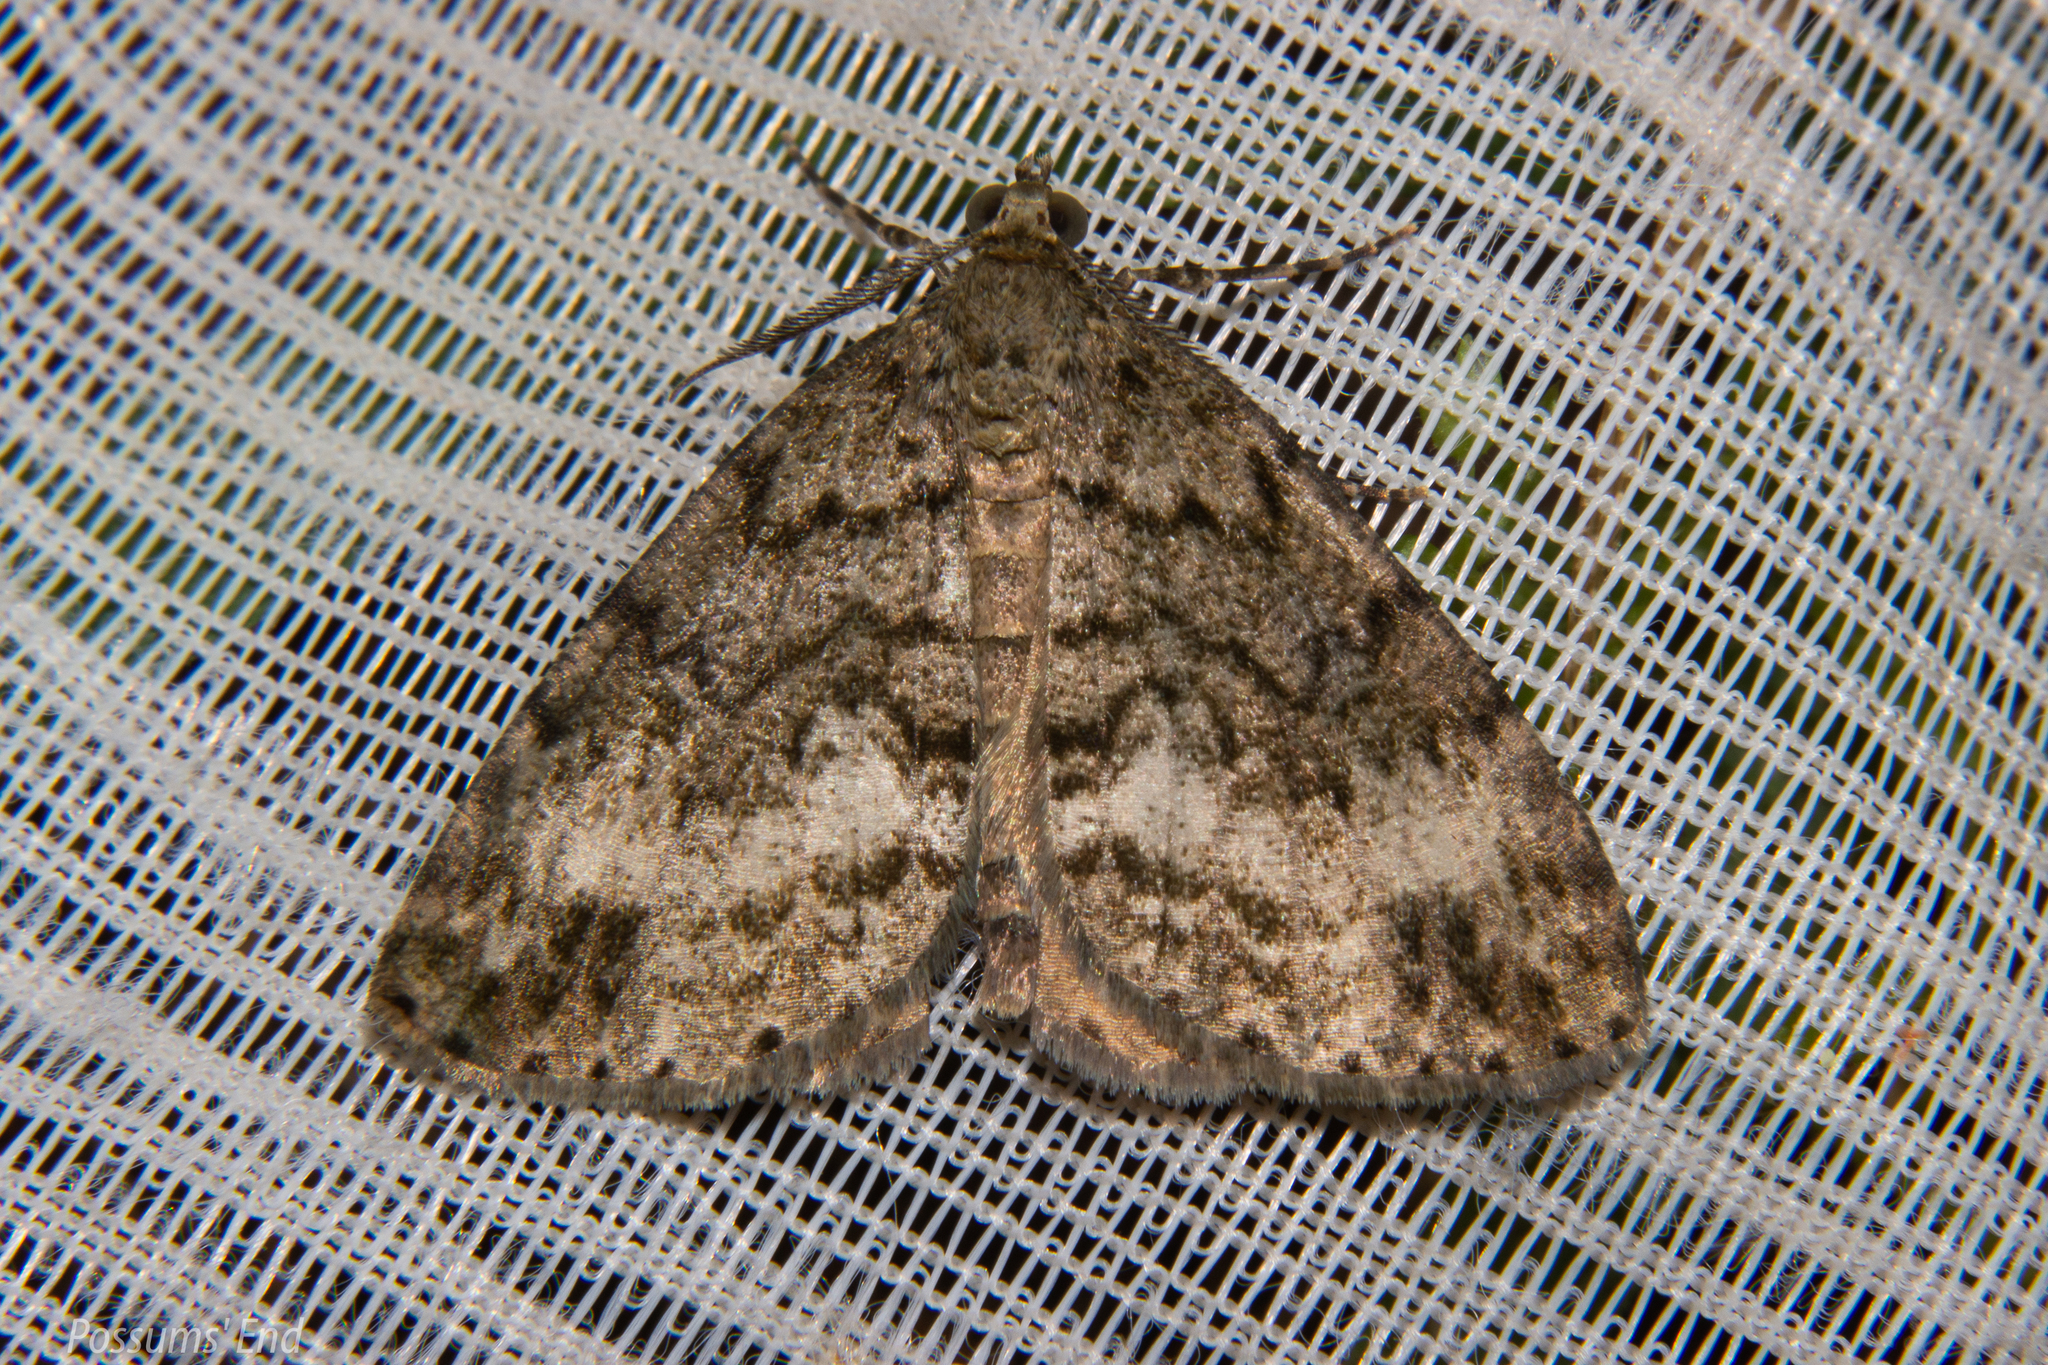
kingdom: Animalia
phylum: Arthropoda
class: Insecta
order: Lepidoptera
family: Geometridae
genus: Pseudocoremia
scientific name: Pseudocoremia indistincta
